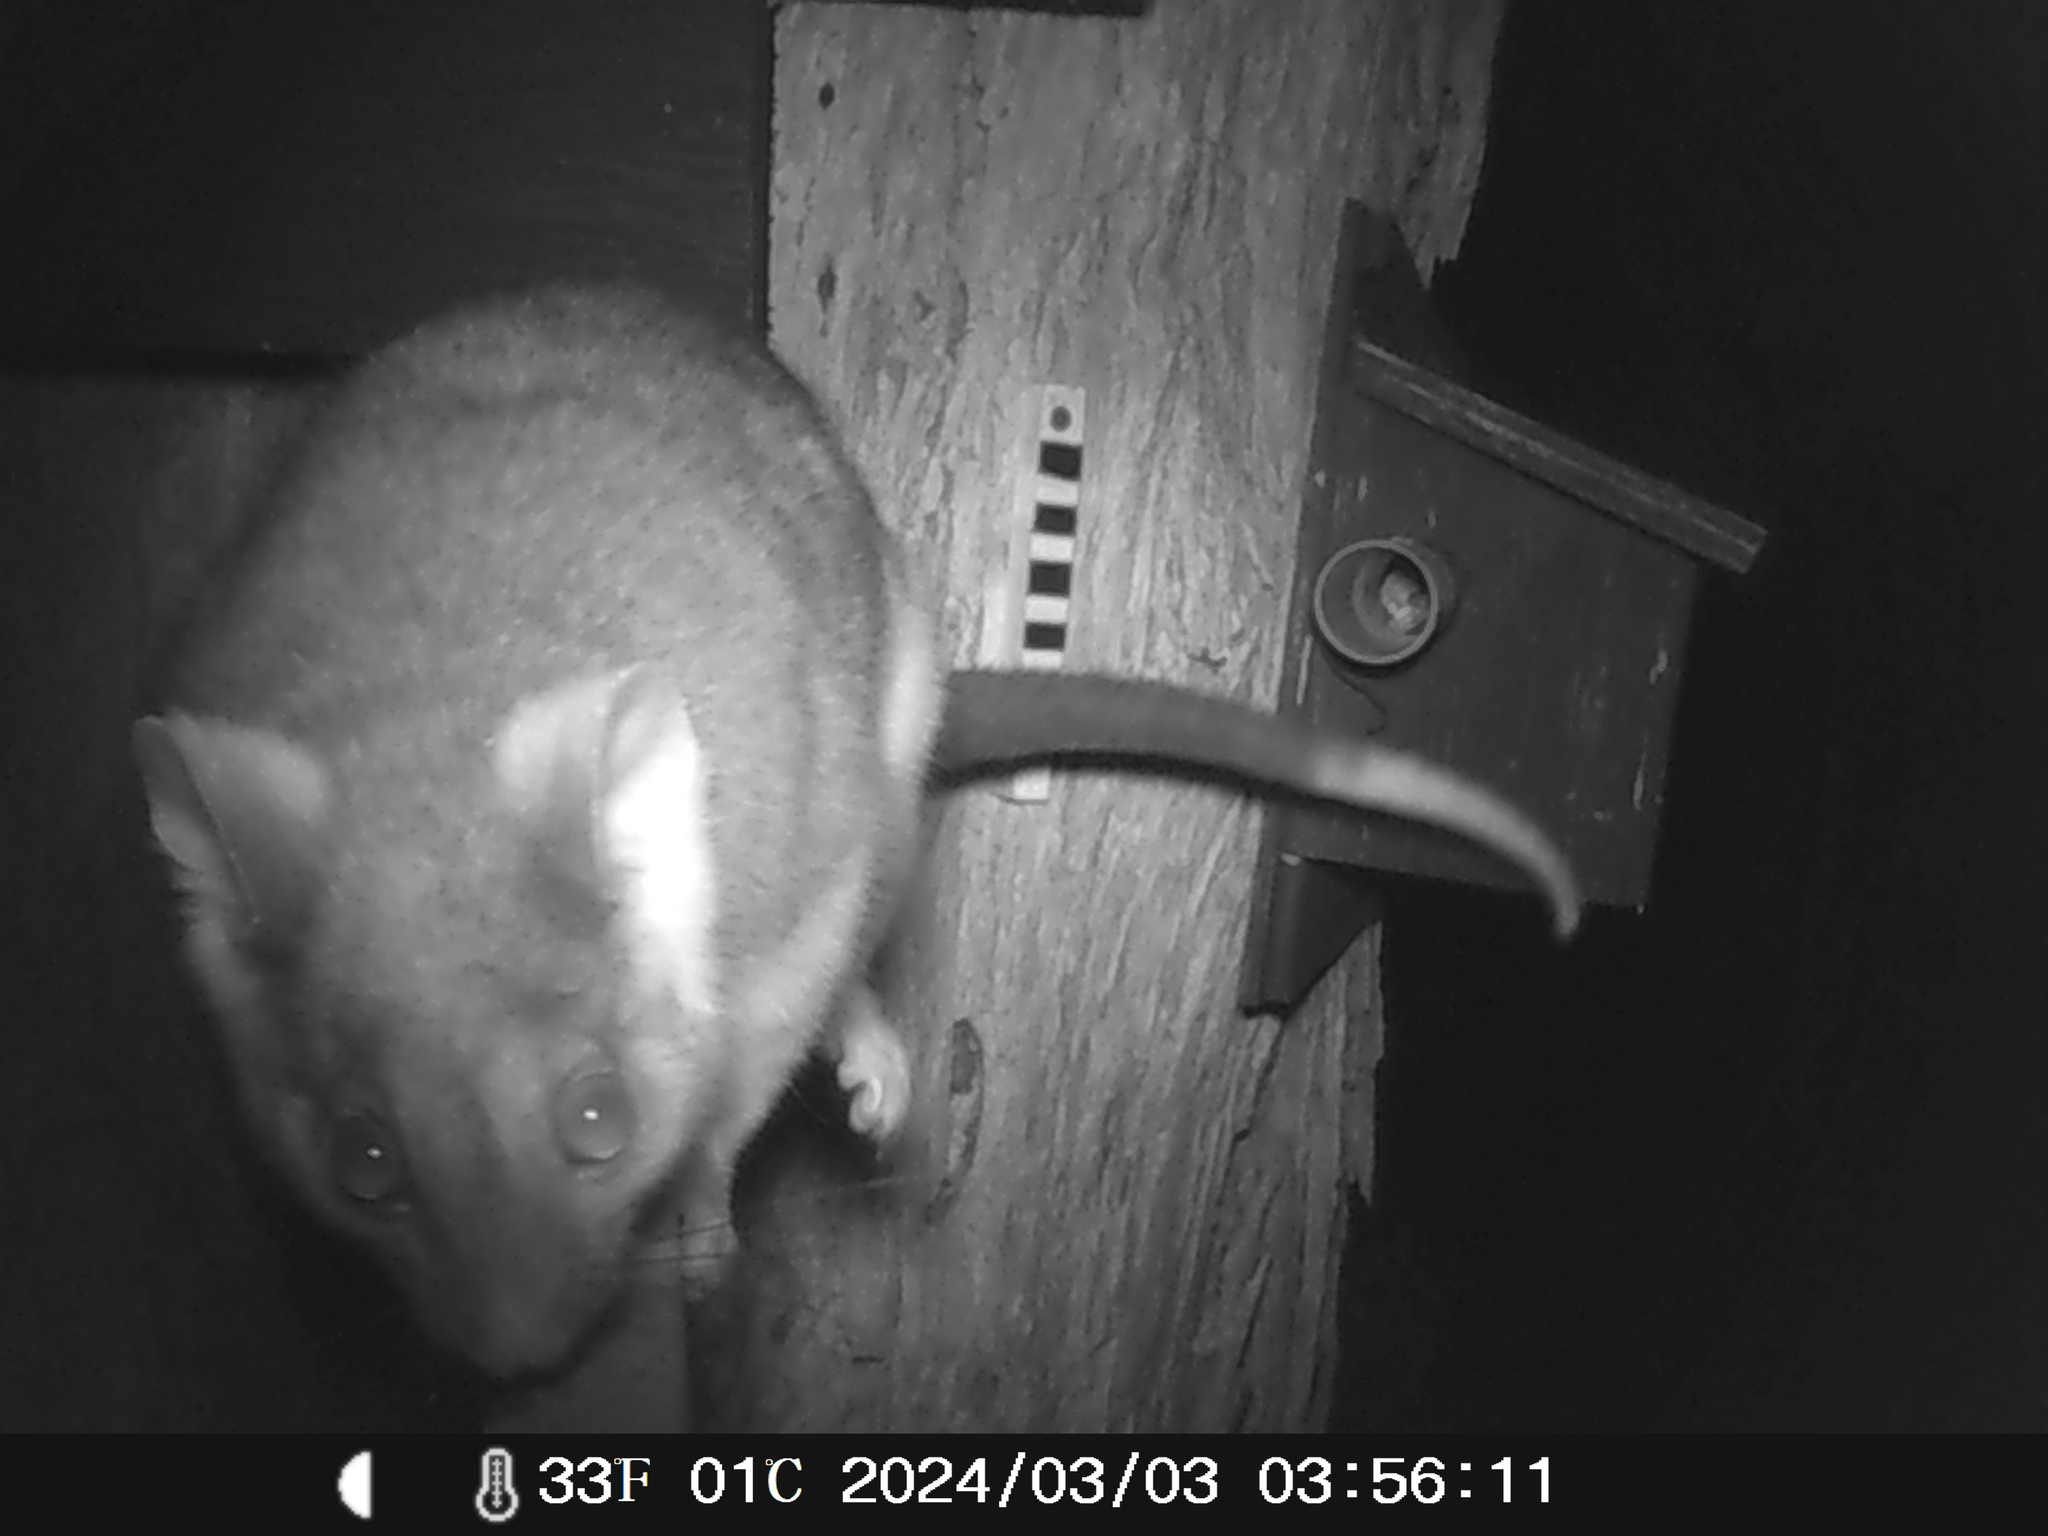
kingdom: Animalia
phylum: Chordata
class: Mammalia
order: Diprotodontia
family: Pseudocheiridae
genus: Pseudocheirus
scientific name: Pseudocheirus peregrinus
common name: Common ringtail possum
